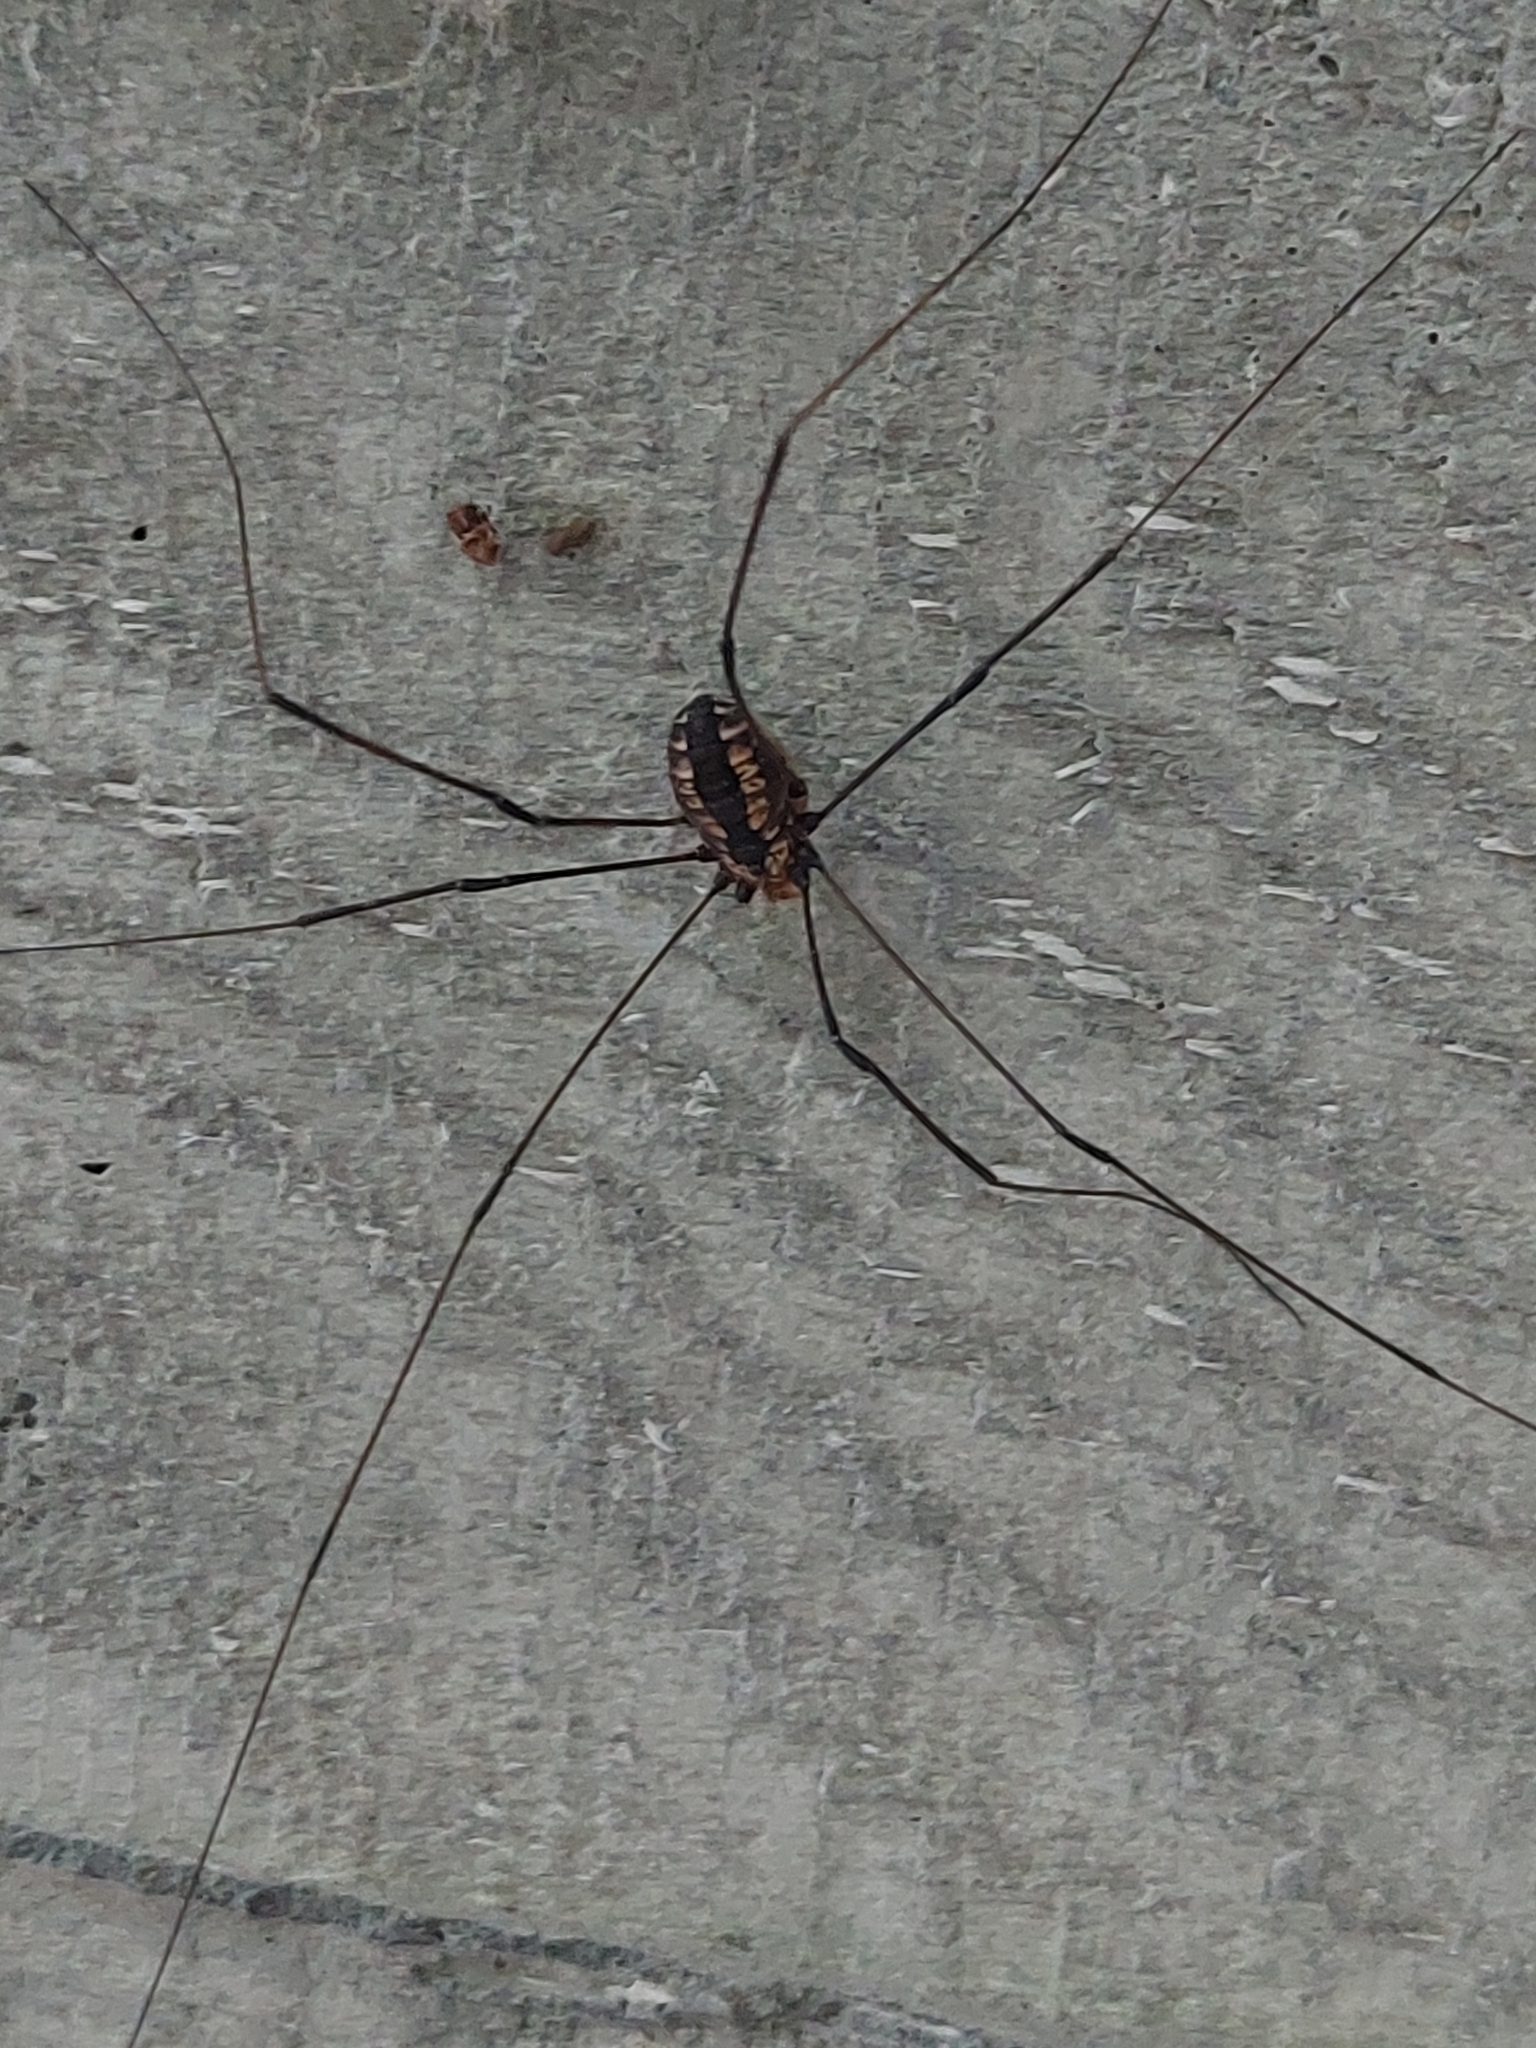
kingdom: Animalia
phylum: Arthropoda
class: Arachnida
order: Opiliones
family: Sclerosomatidae
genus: Leiobunum
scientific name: Leiobunum vittatum
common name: Eastern harvestman
